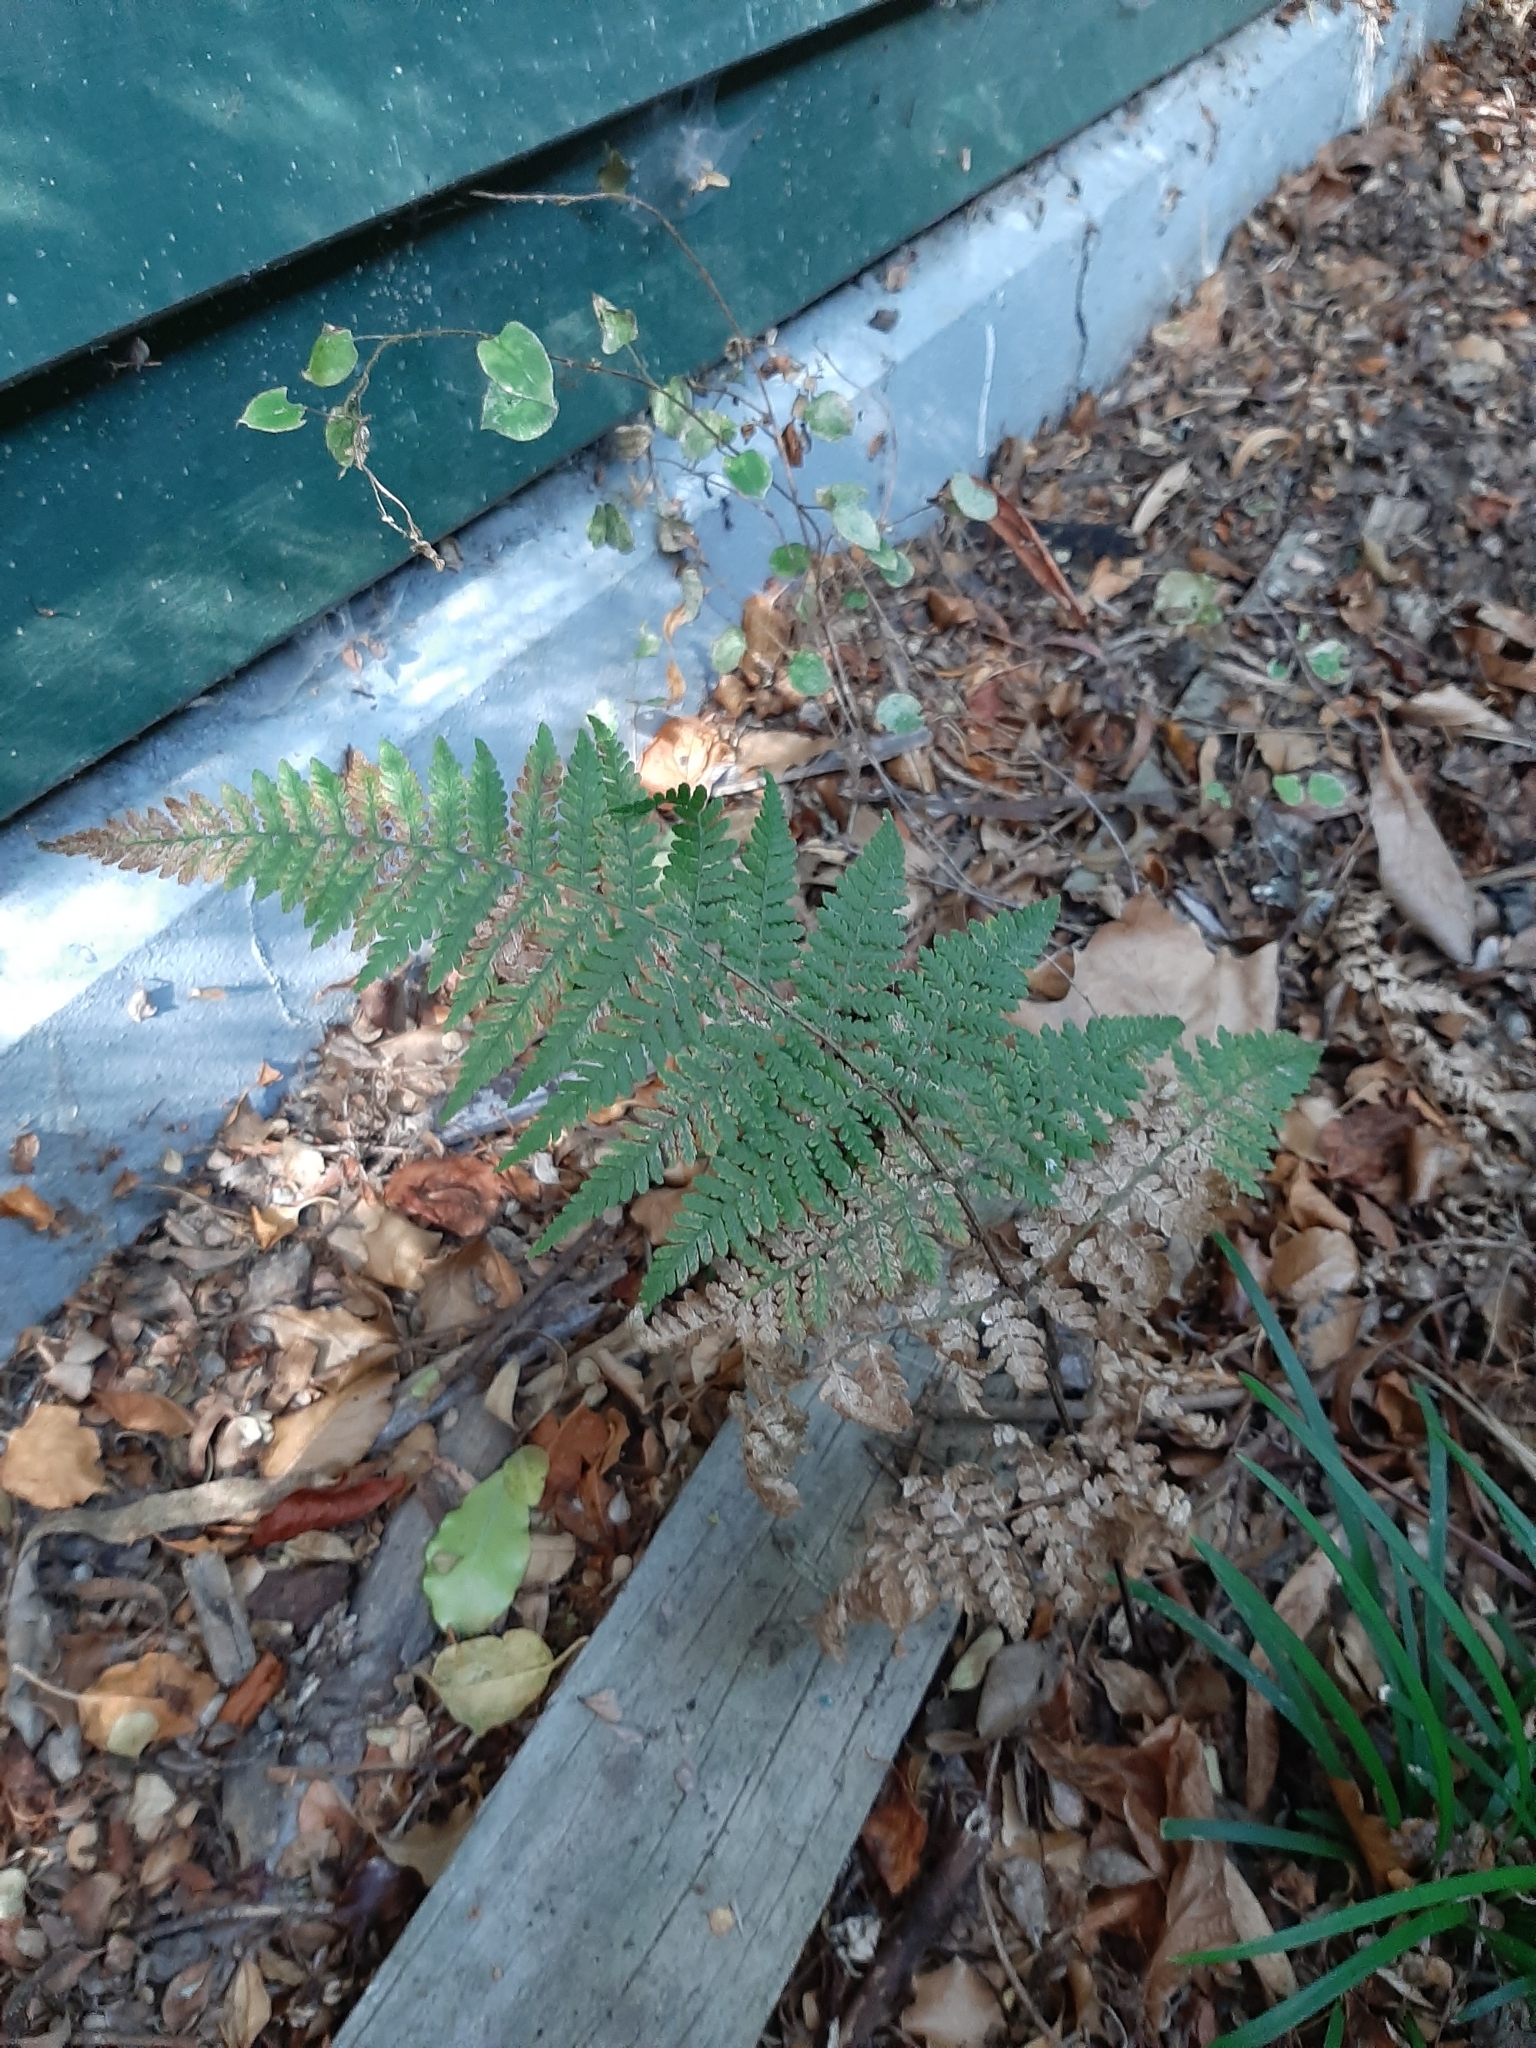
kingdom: Plantae
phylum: Tracheophyta
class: Polypodiopsida
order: Polypodiales
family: Dennstaedtiaceae
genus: Hypolepis
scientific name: Hypolepis ambigua
